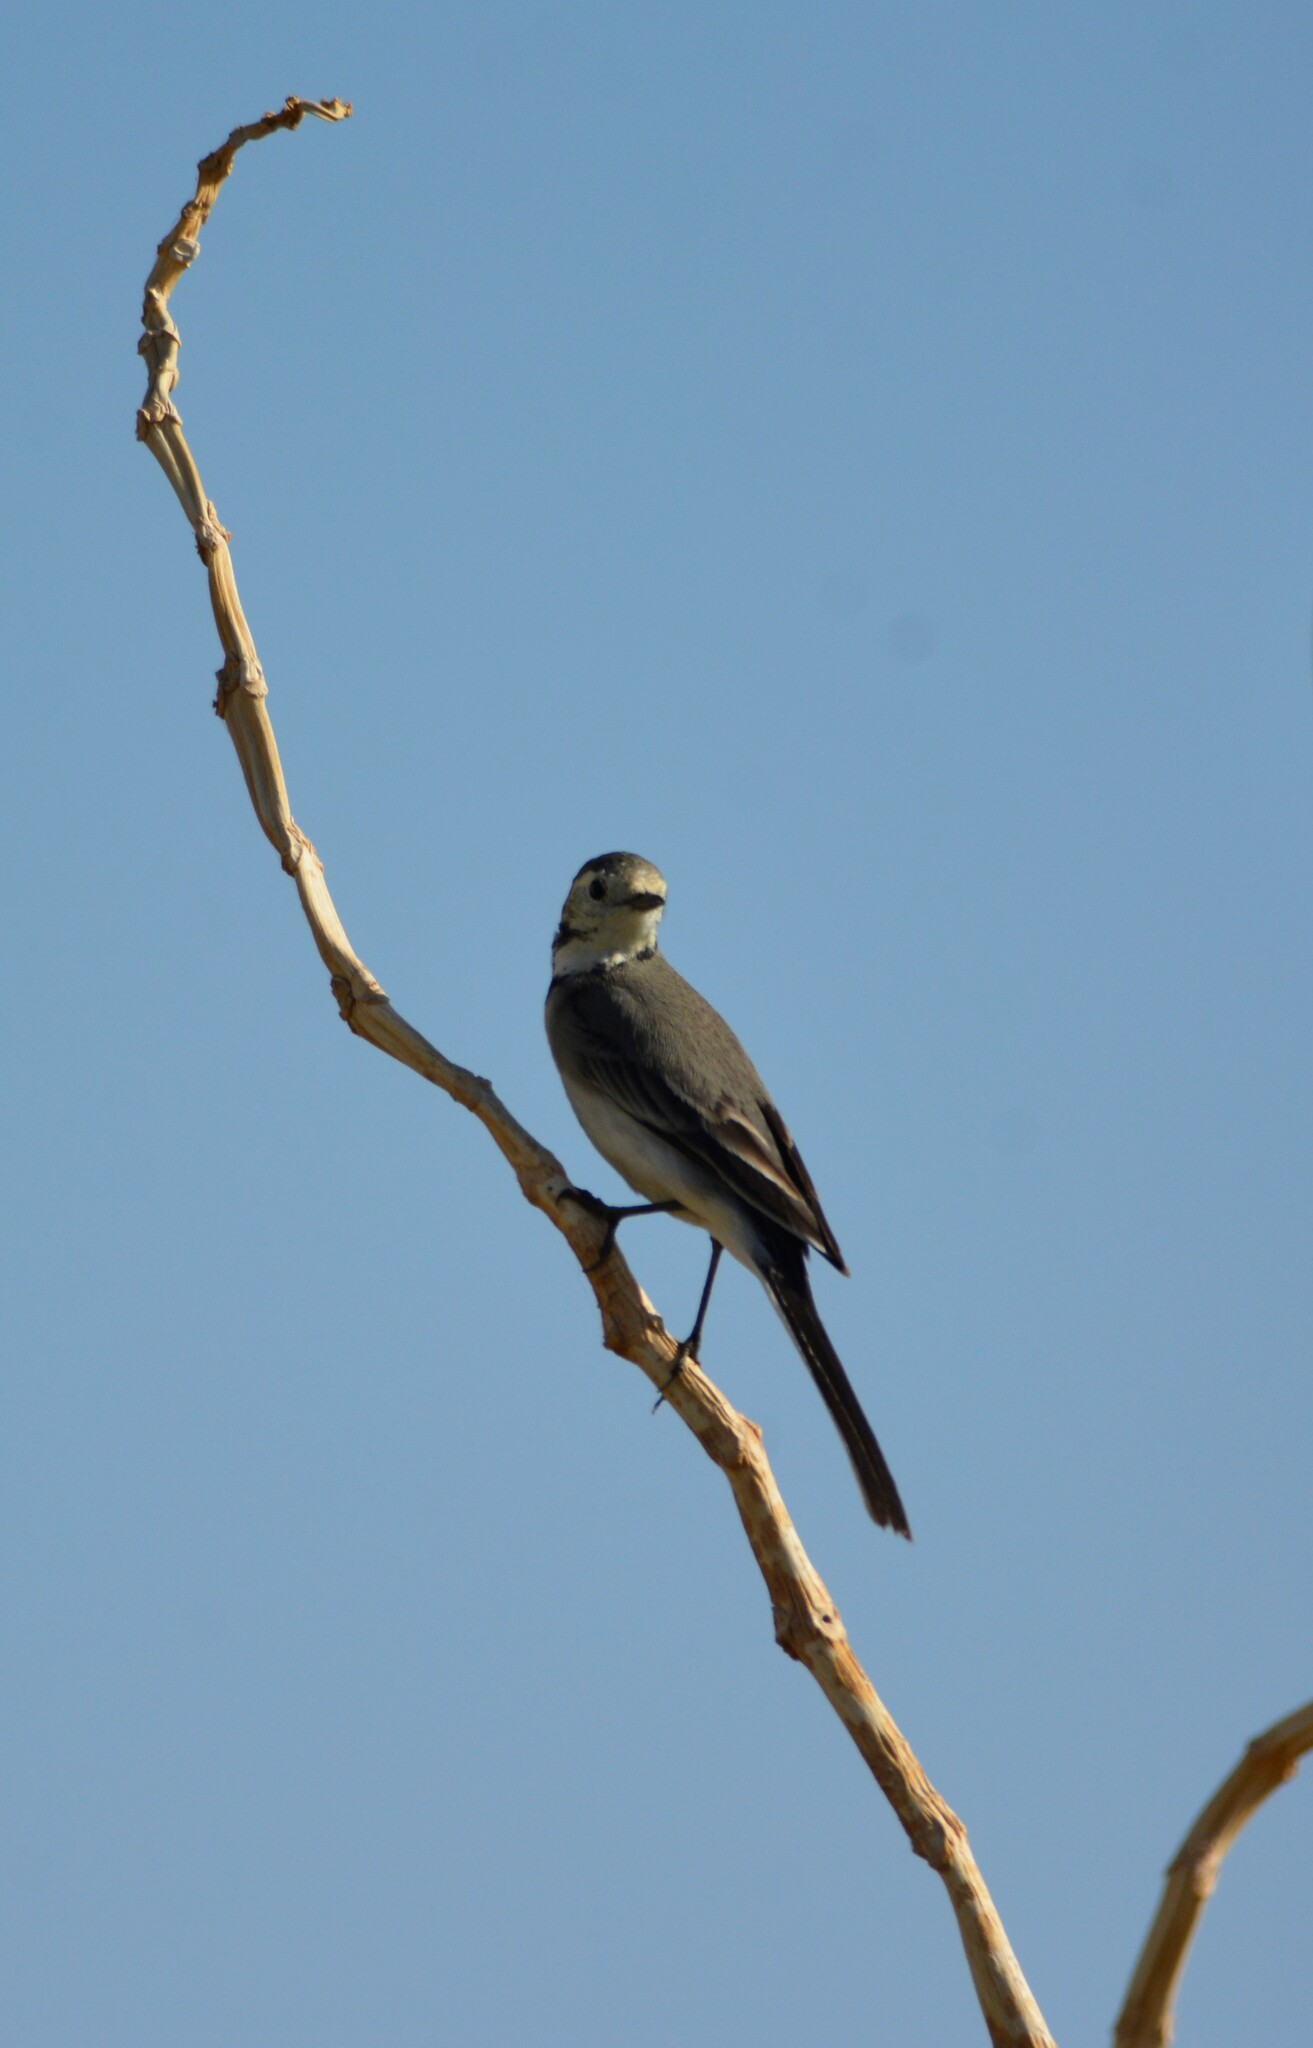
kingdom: Animalia
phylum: Chordata
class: Aves
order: Passeriformes
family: Motacillidae
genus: Motacilla
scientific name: Motacilla alba
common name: White wagtail
